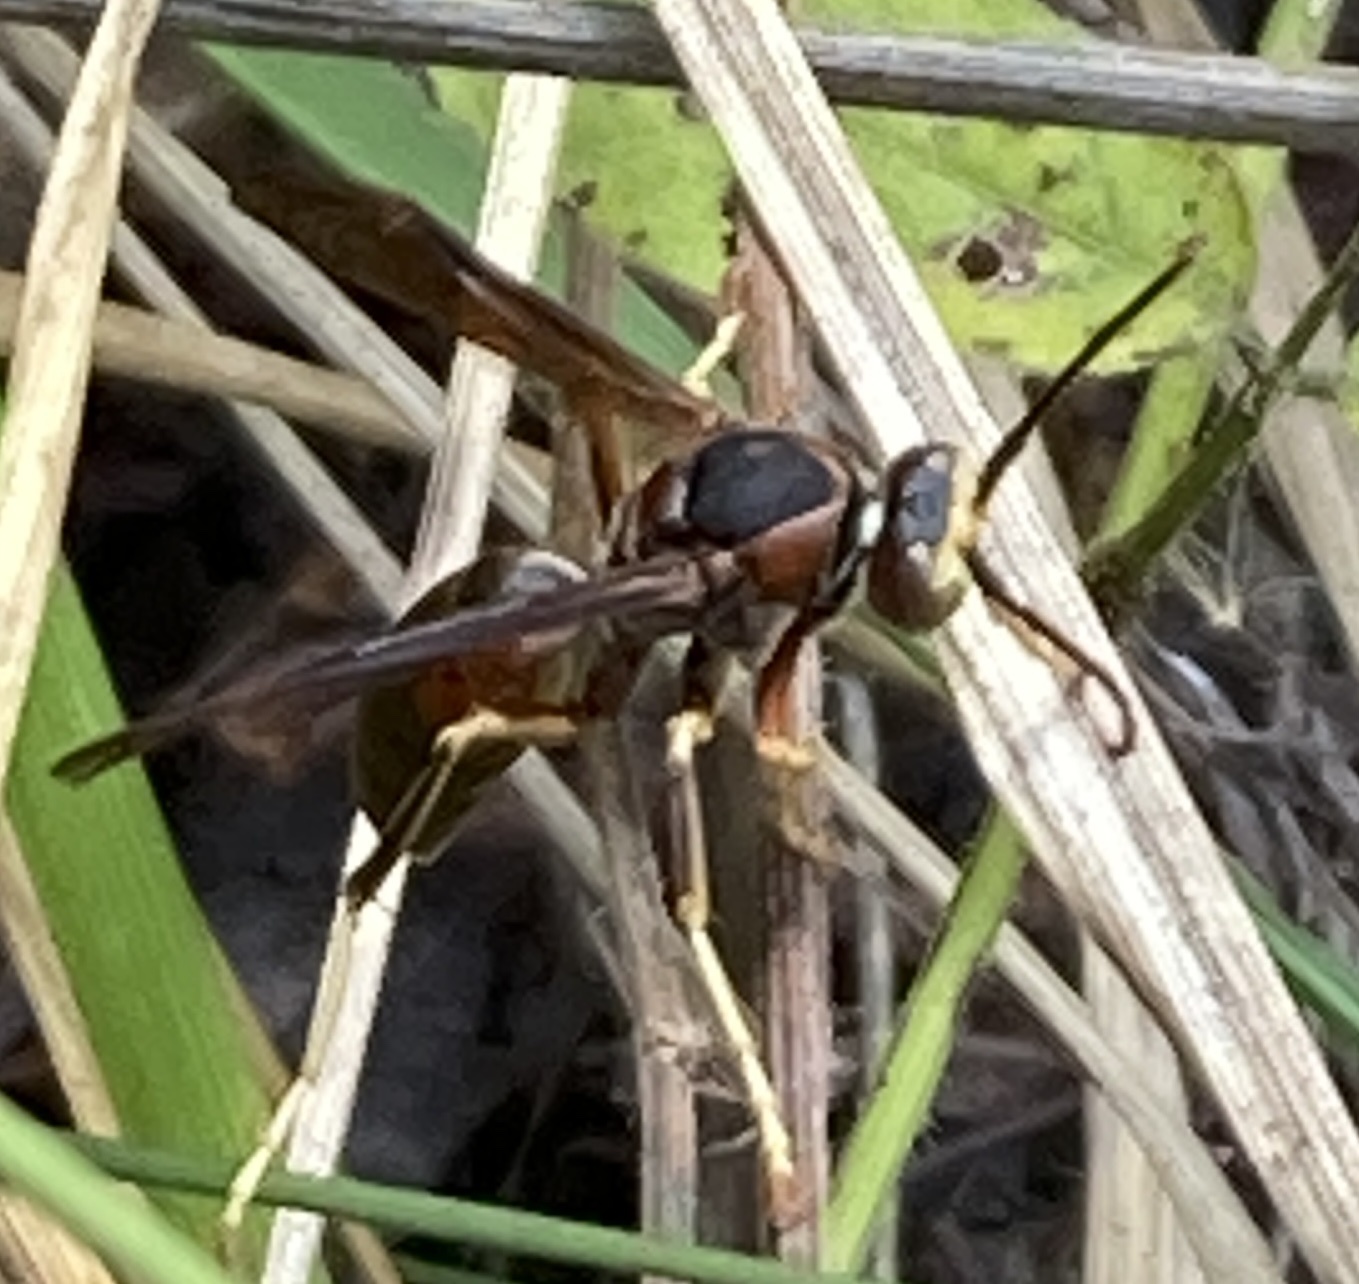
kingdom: Animalia
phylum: Arthropoda
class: Insecta
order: Hymenoptera
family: Eumenidae
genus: Polistes
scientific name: Polistes fuscatus
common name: Dark paper wasp
